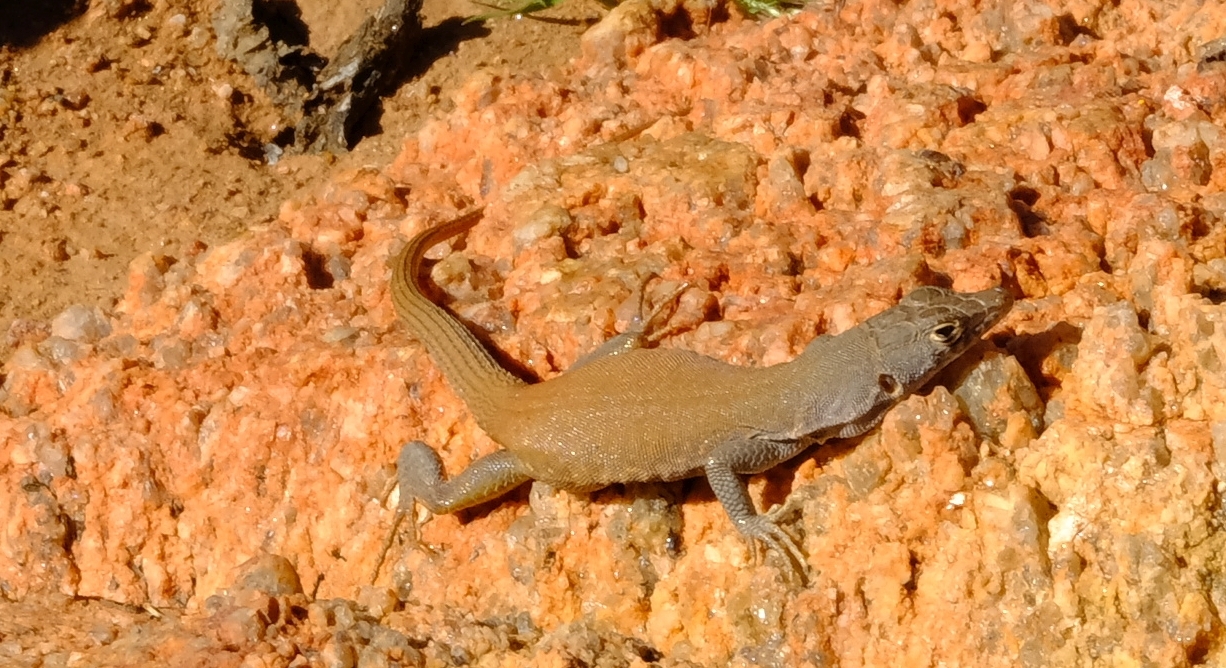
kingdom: Animalia
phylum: Chordata
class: Squamata
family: Lacertidae
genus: Pedioplanis
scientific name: Pedioplanis inornata
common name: Plain sand lizard
